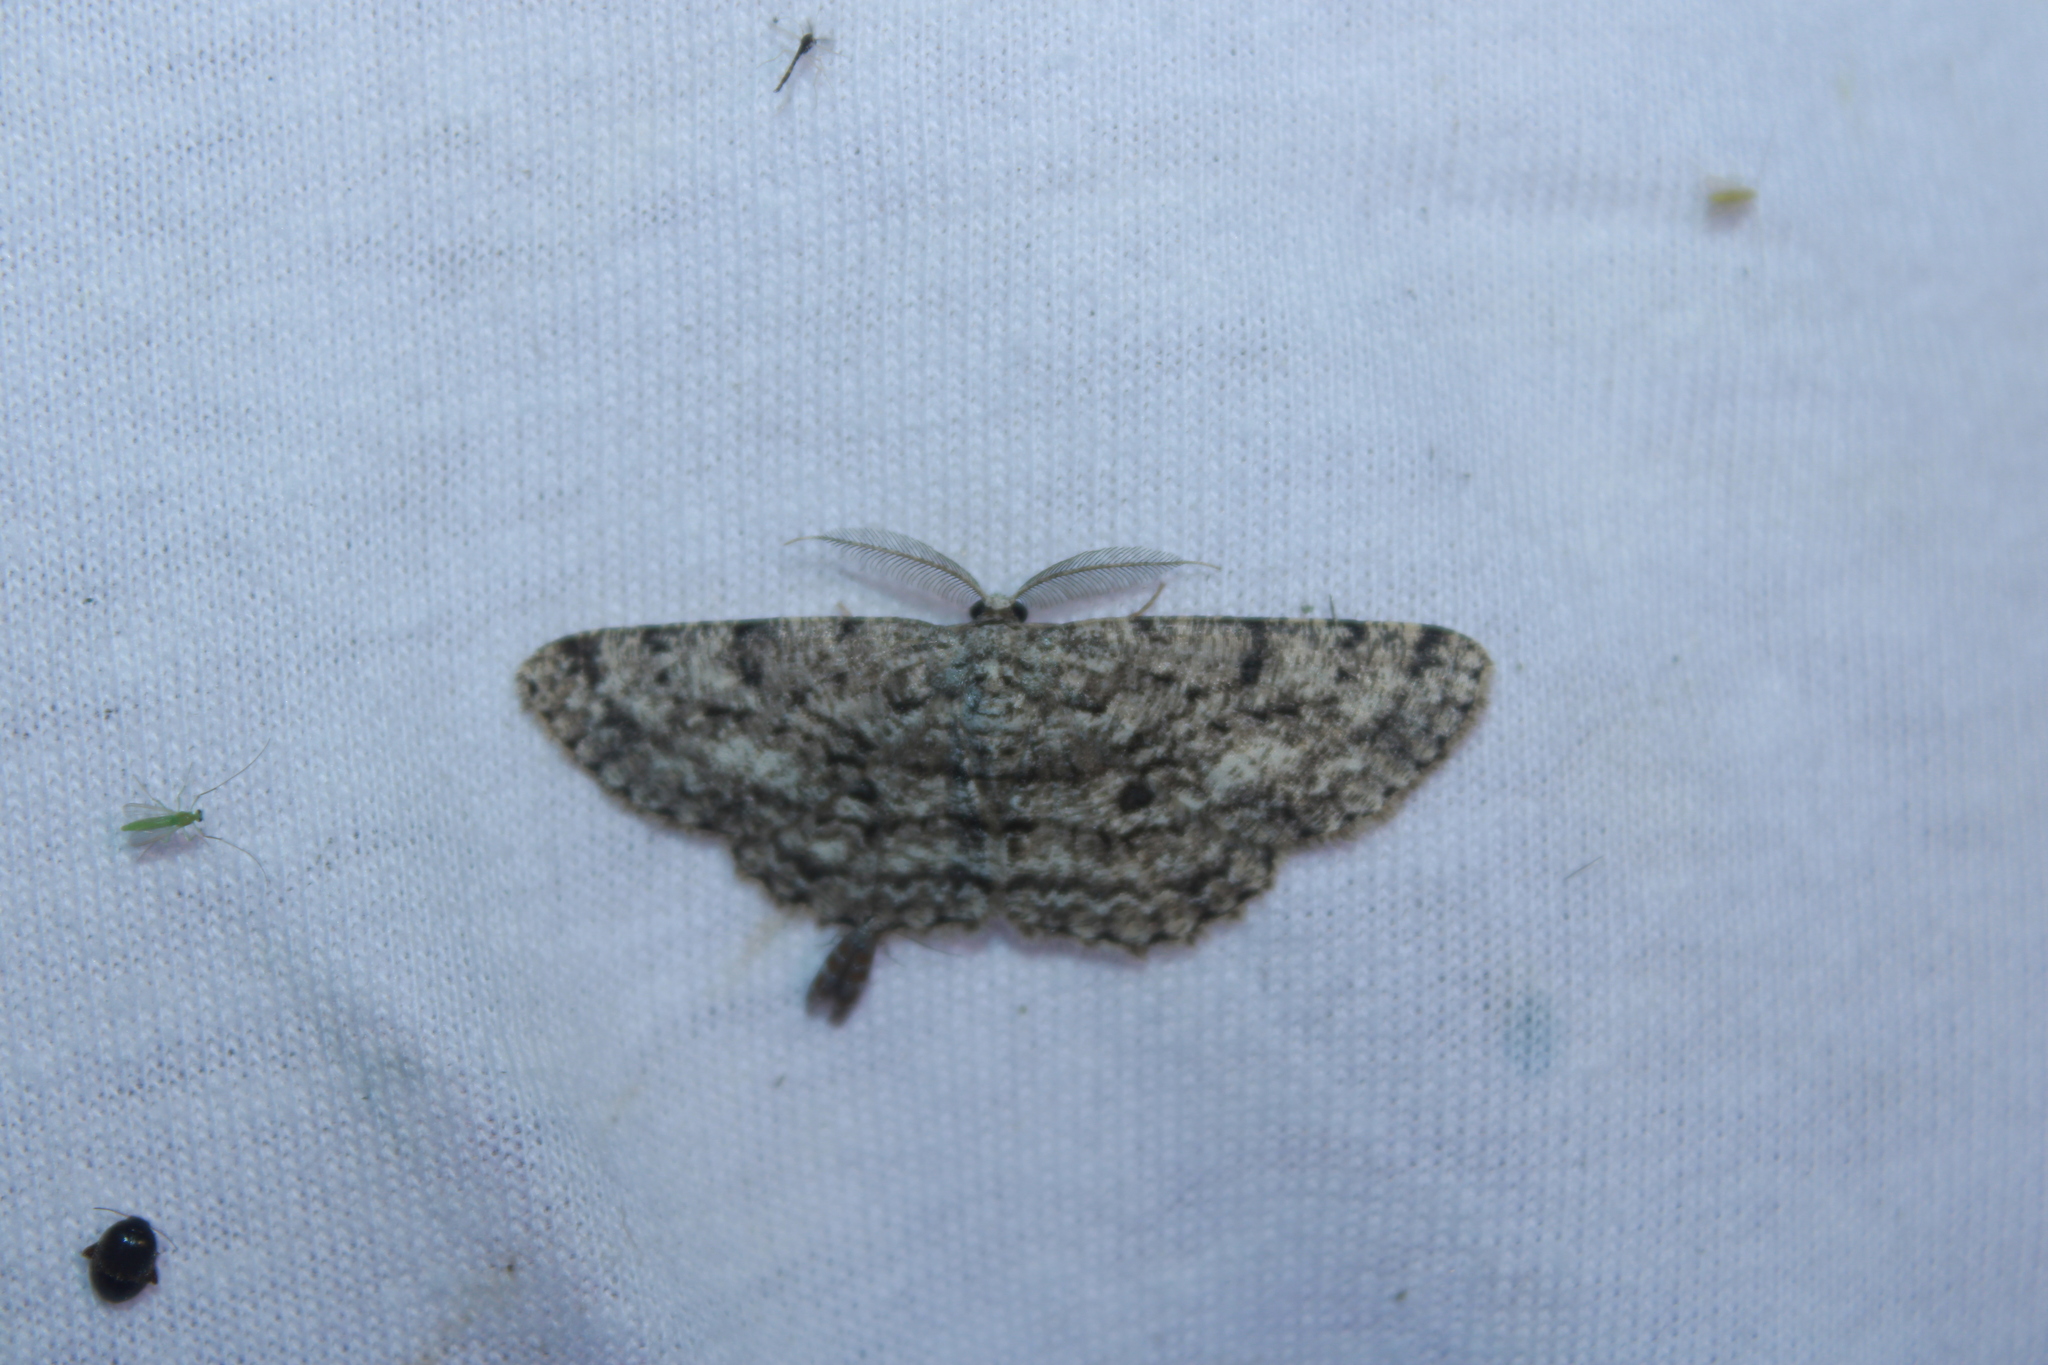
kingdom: Animalia
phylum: Arthropoda
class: Insecta
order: Lepidoptera
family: Geometridae
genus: Hypomecis
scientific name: Hypomecis umbrosaria
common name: Umber moth
